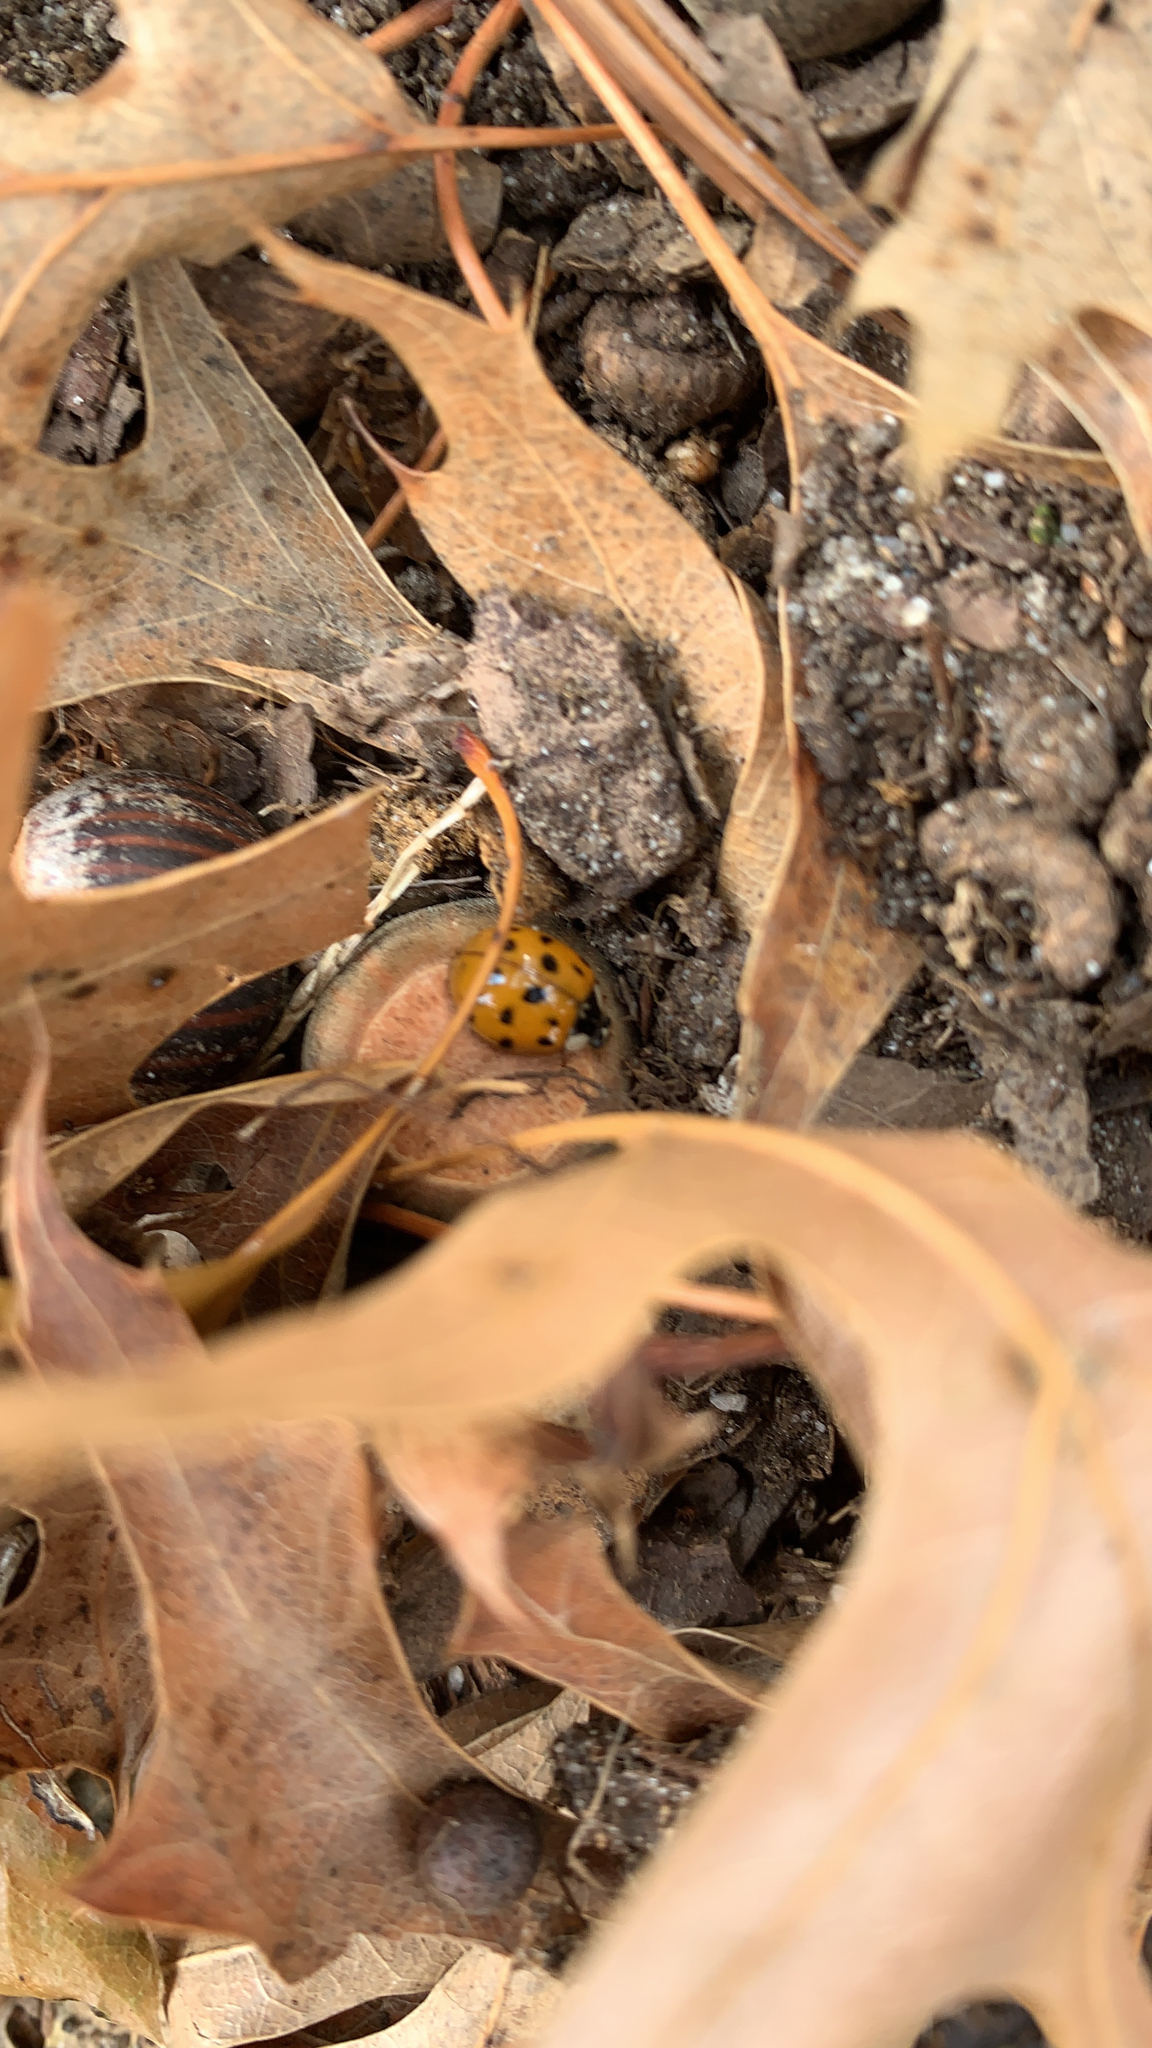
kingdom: Animalia
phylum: Arthropoda
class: Insecta
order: Coleoptera
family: Coccinellidae
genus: Harmonia
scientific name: Harmonia axyridis
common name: Harlequin ladybird
